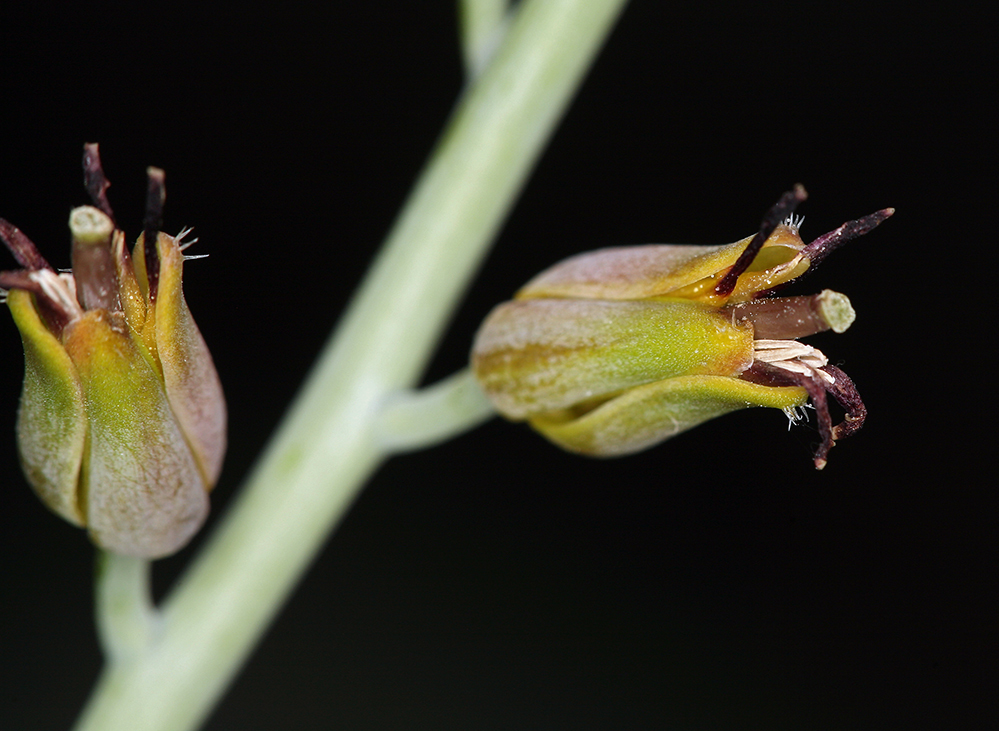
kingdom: Plantae
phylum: Tracheophyta
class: Magnoliopsida
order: Brassicales
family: Brassicaceae
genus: Streptanthus
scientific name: Streptanthus barbatus
